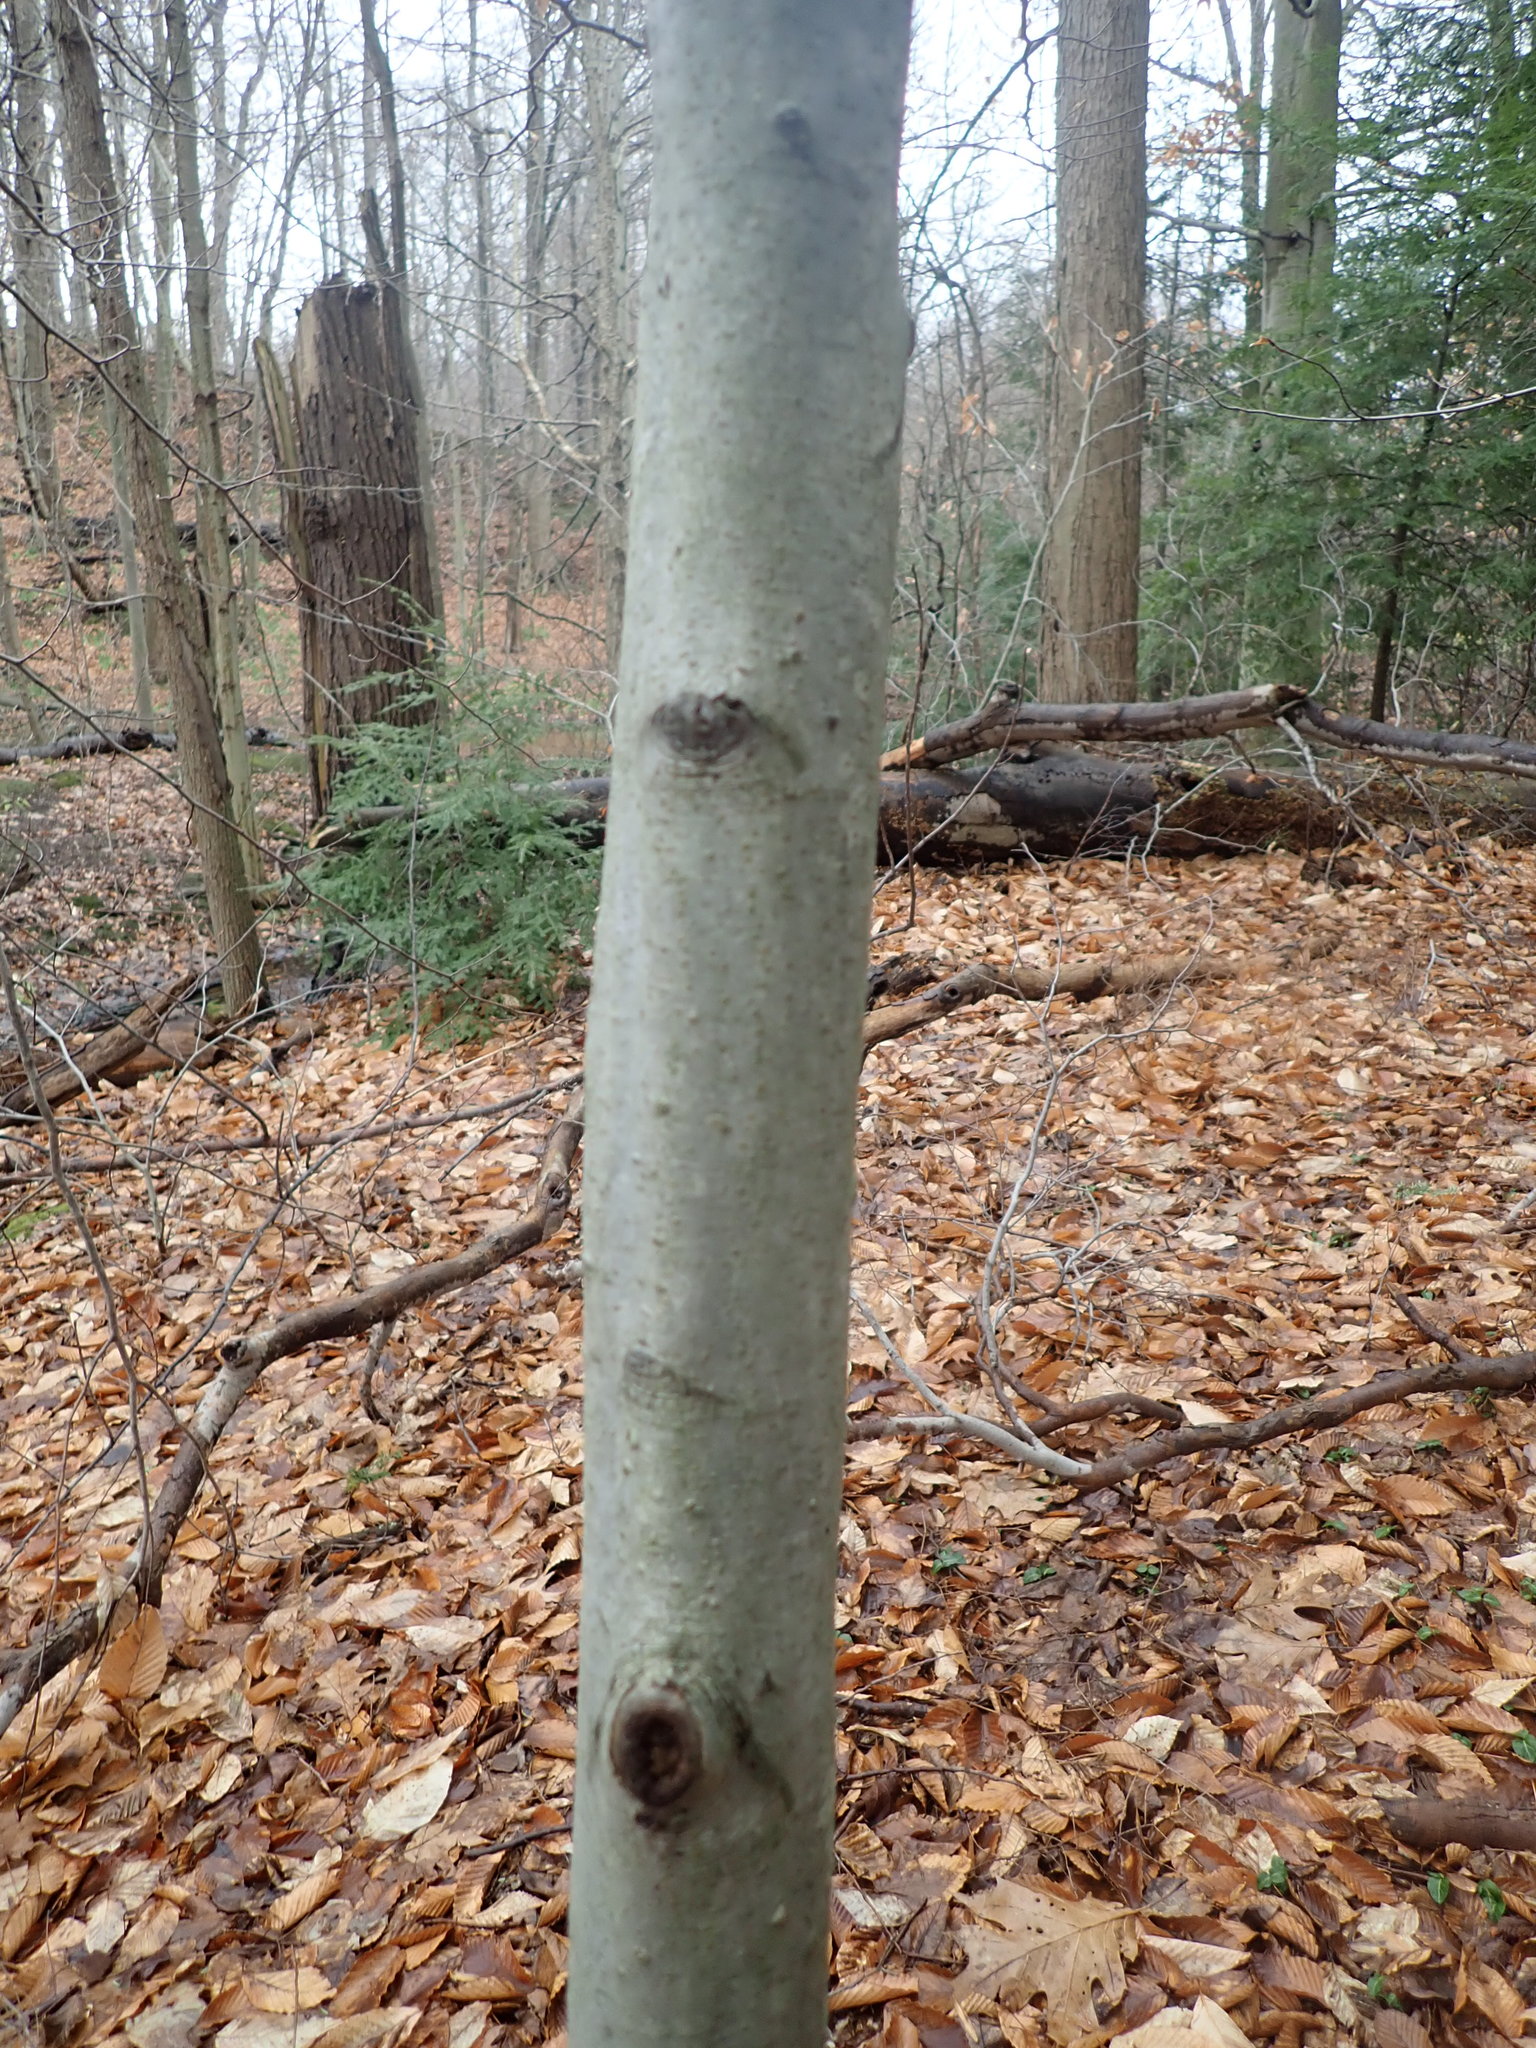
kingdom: Plantae
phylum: Tracheophyta
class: Magnoliopsida
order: Fagales
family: Fagaceae
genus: Fagus
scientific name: Fagus grandifolia
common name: American beech
